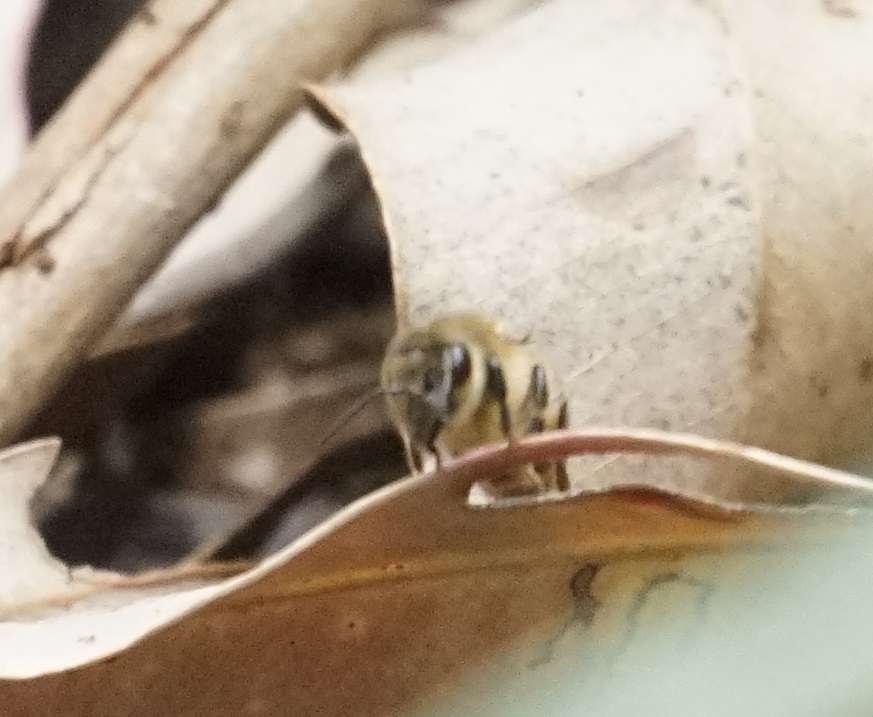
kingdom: Animalia
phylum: Arthropoda
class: Insecta
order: Hymenoptera
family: Apidae
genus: Apis
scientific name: Apis mellifera
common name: Honey bee
